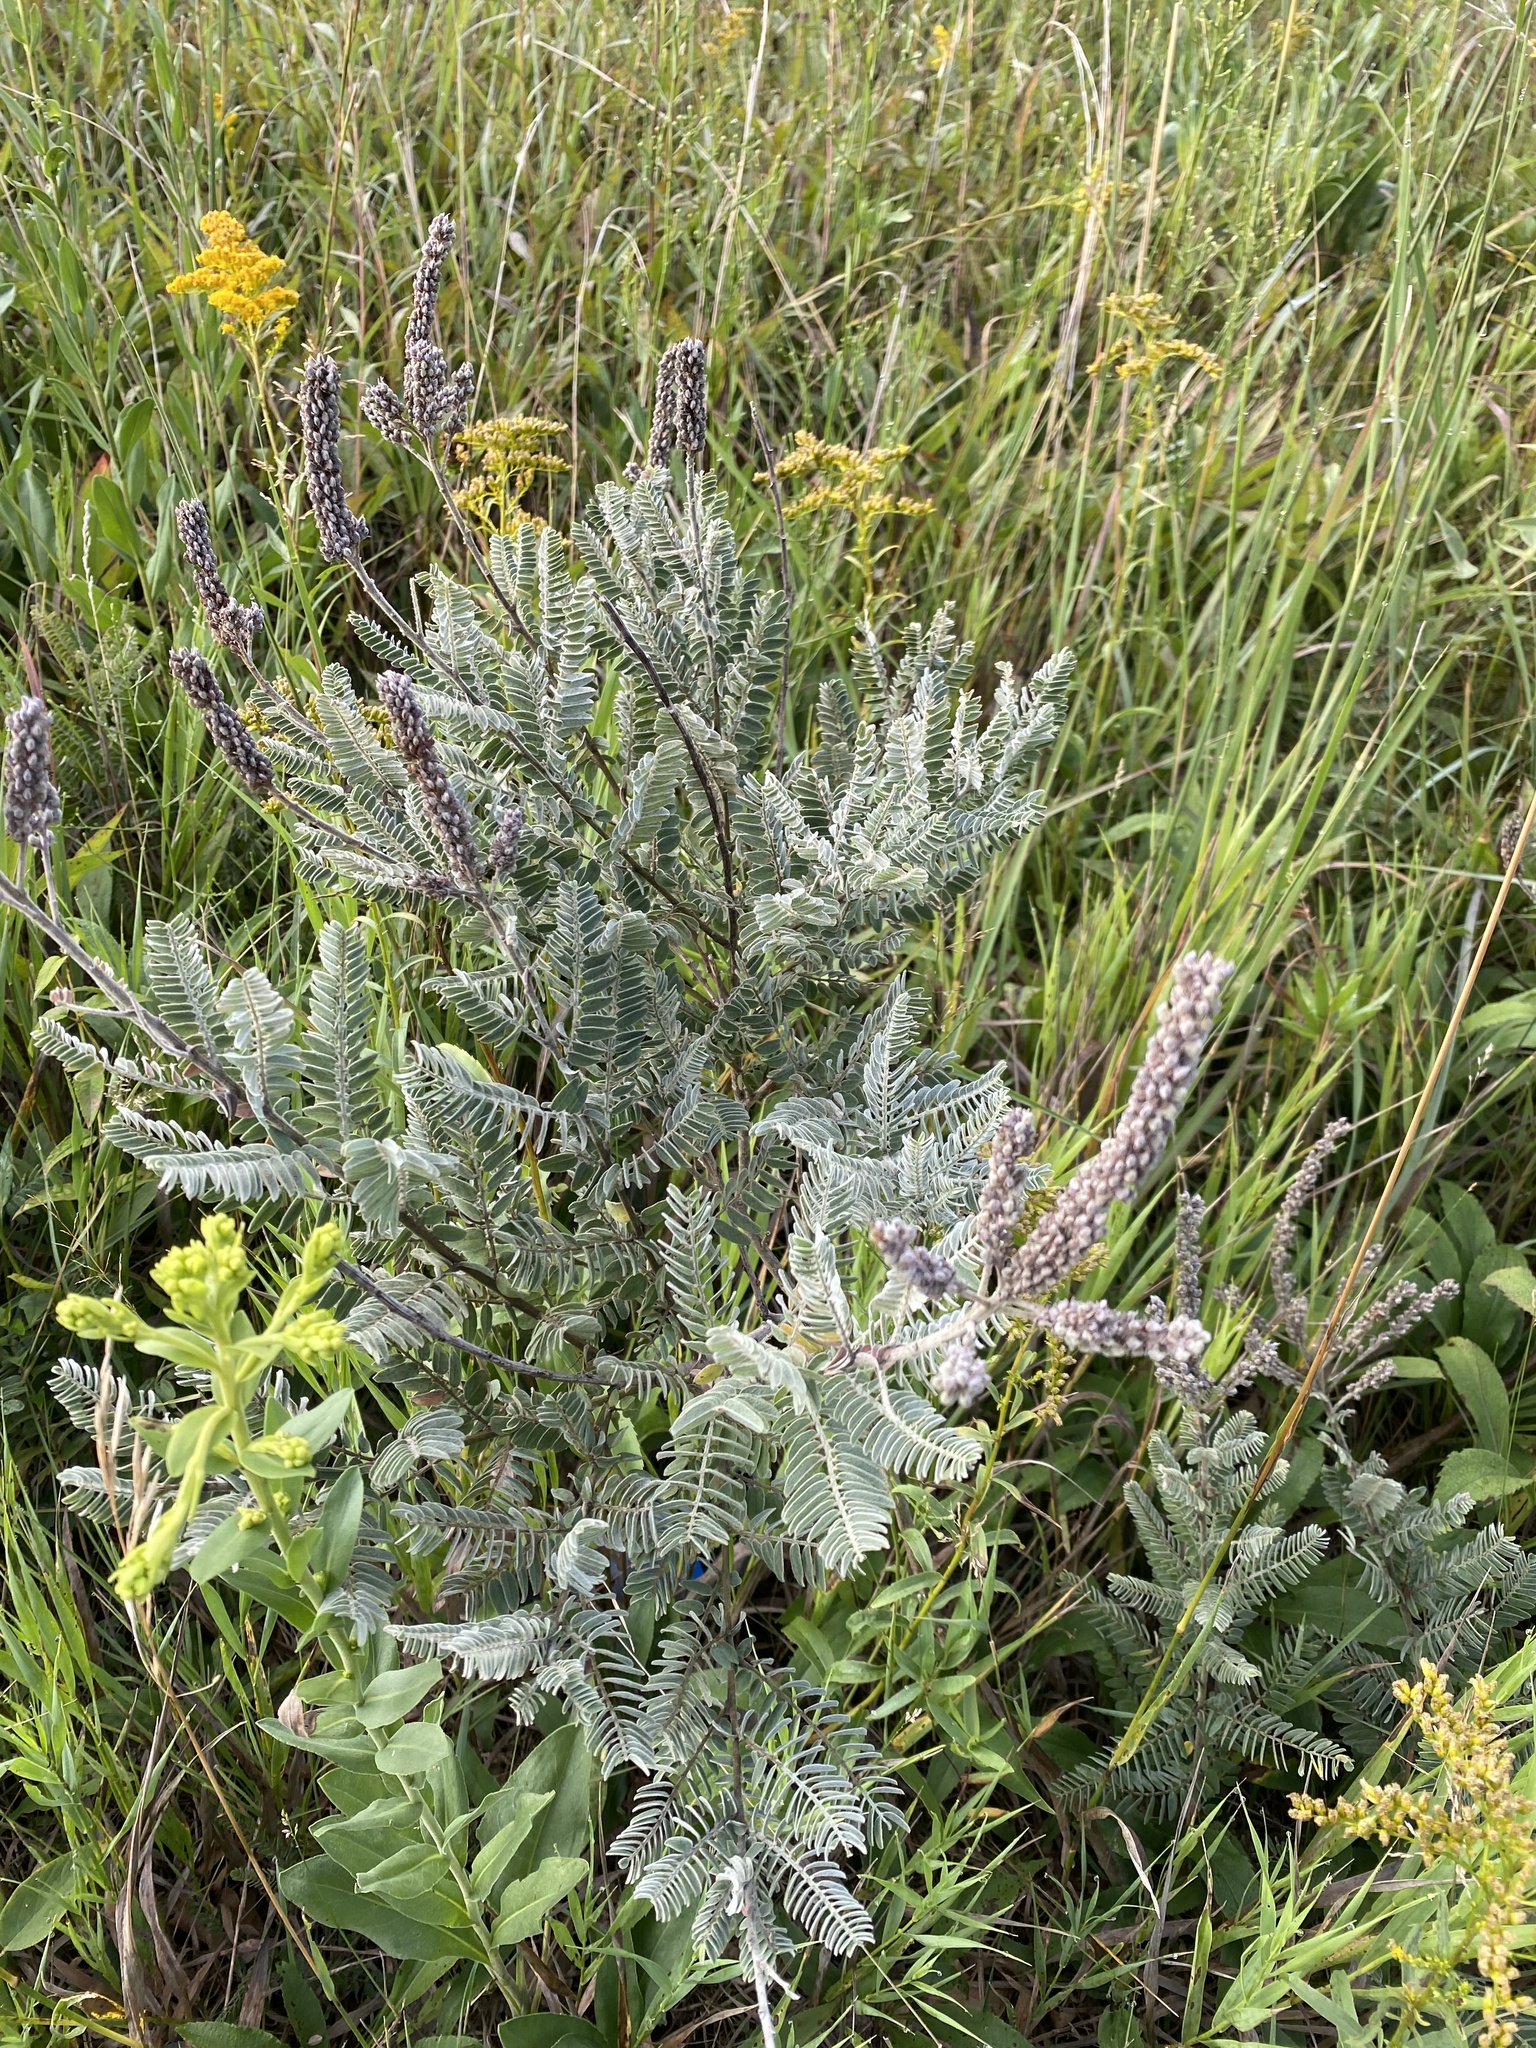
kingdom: Plantae
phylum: Tracheophyta
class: Magnoliopsida
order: Fabales
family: Fabaceae
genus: Amorpha
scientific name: Amorpha canescens
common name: Leadplant
